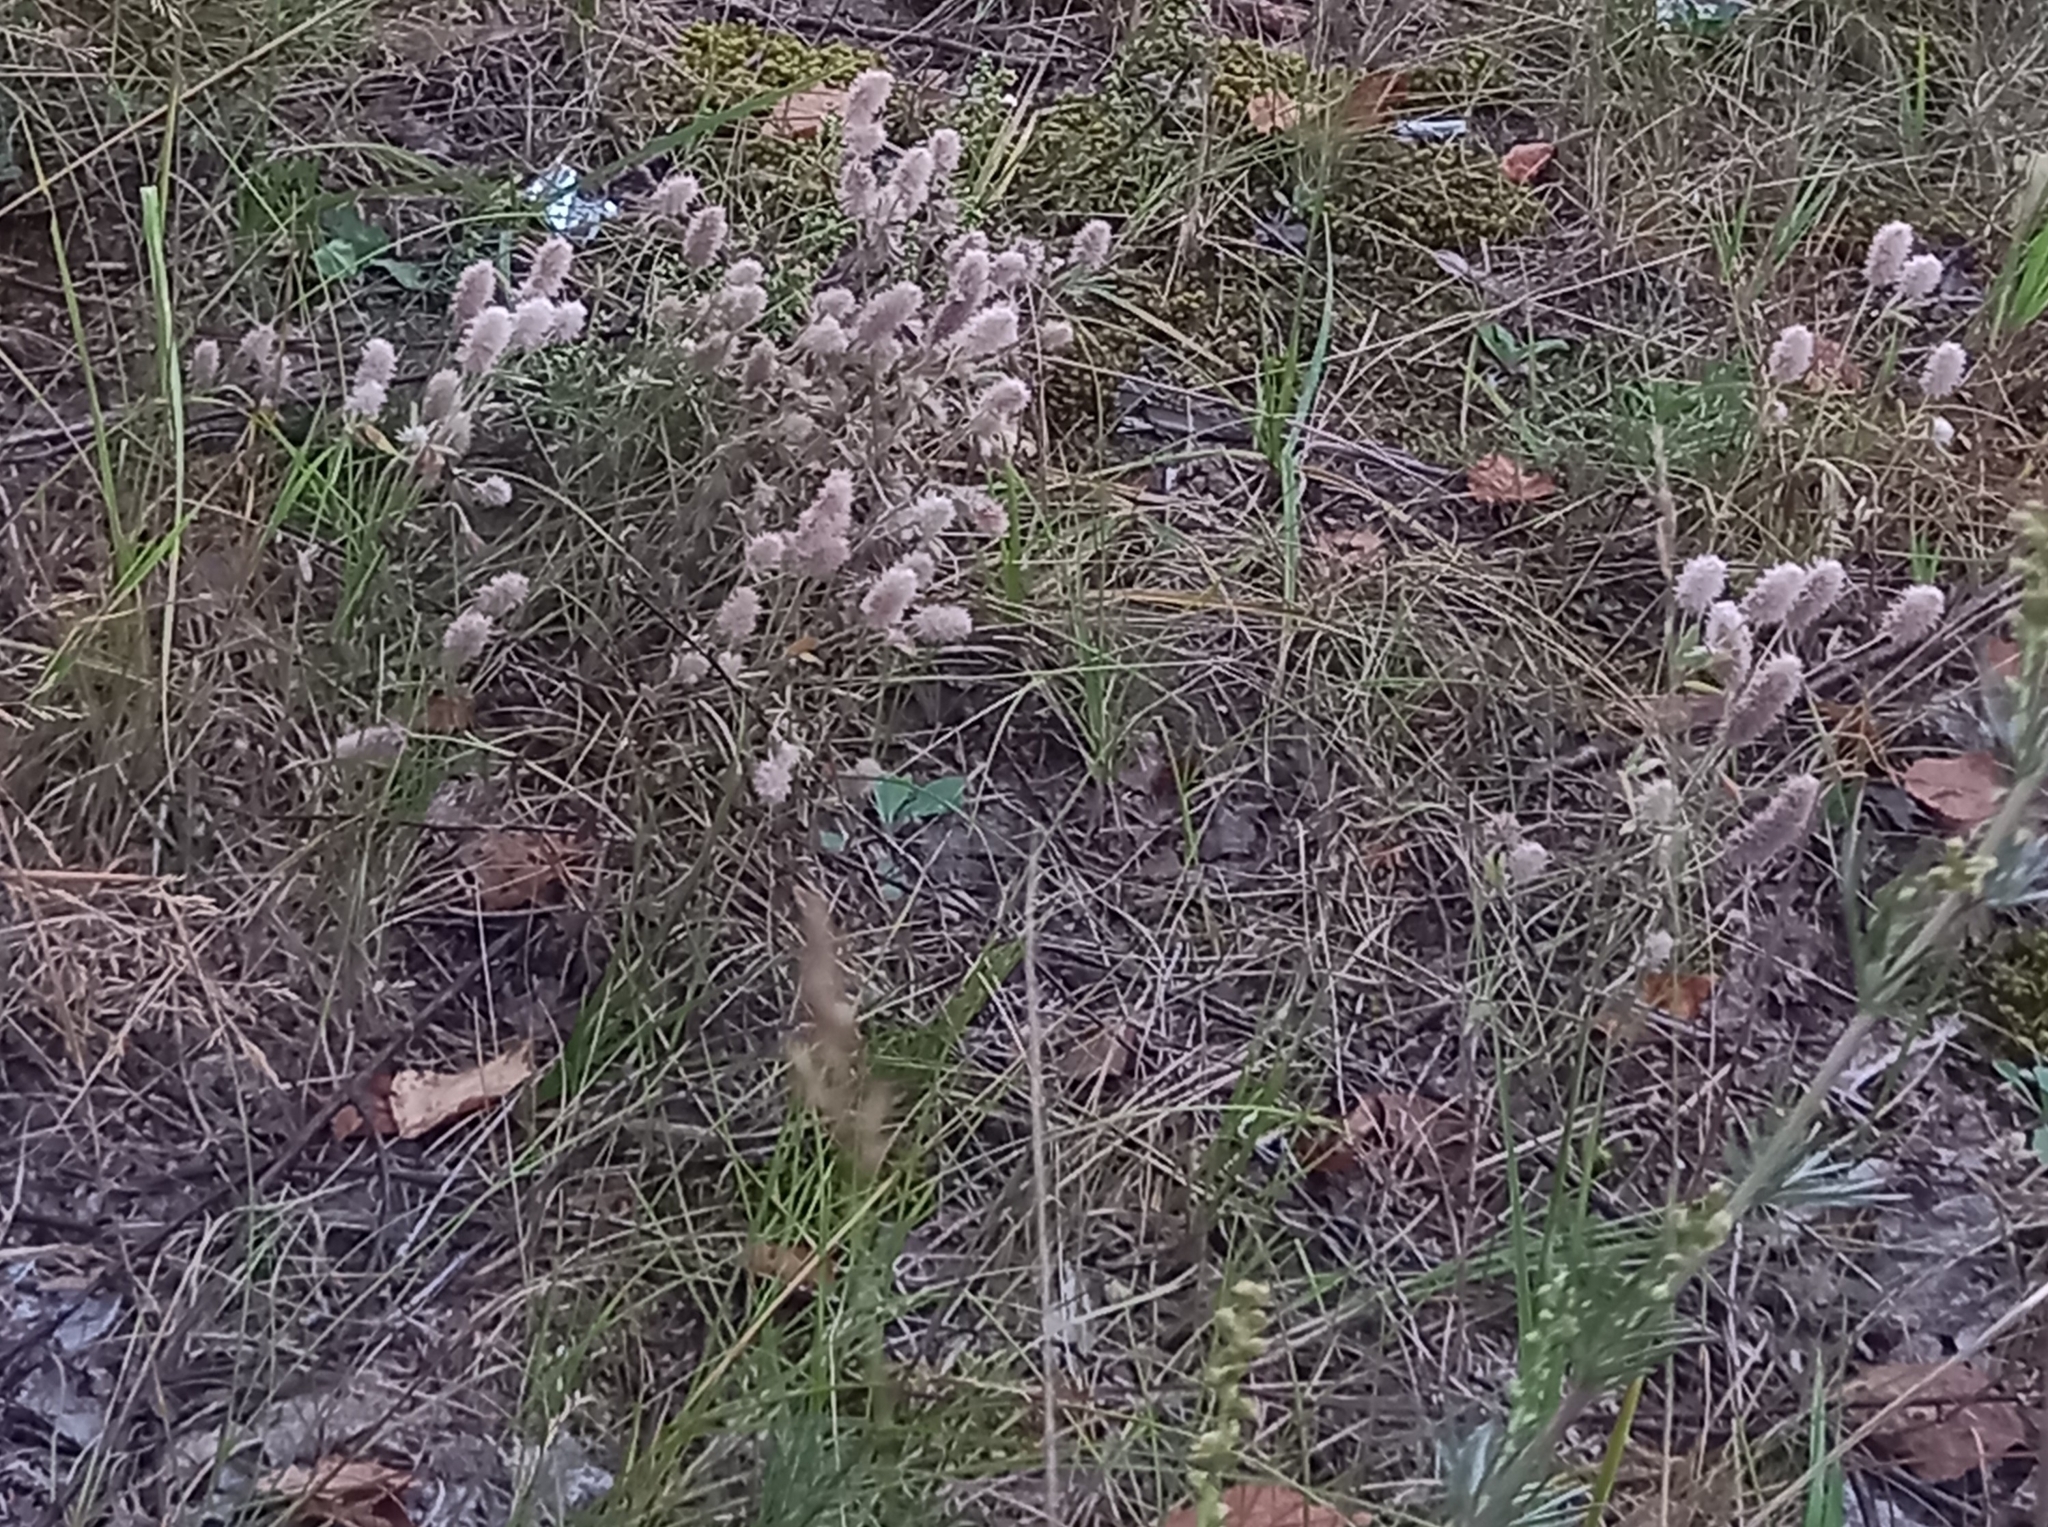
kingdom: Plantae
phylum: Tracheophyta
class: Magnoliopsida
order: Fabales
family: Fabaceae
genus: Trifolium
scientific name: Trifolium arvense
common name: Hare's-foot clover
